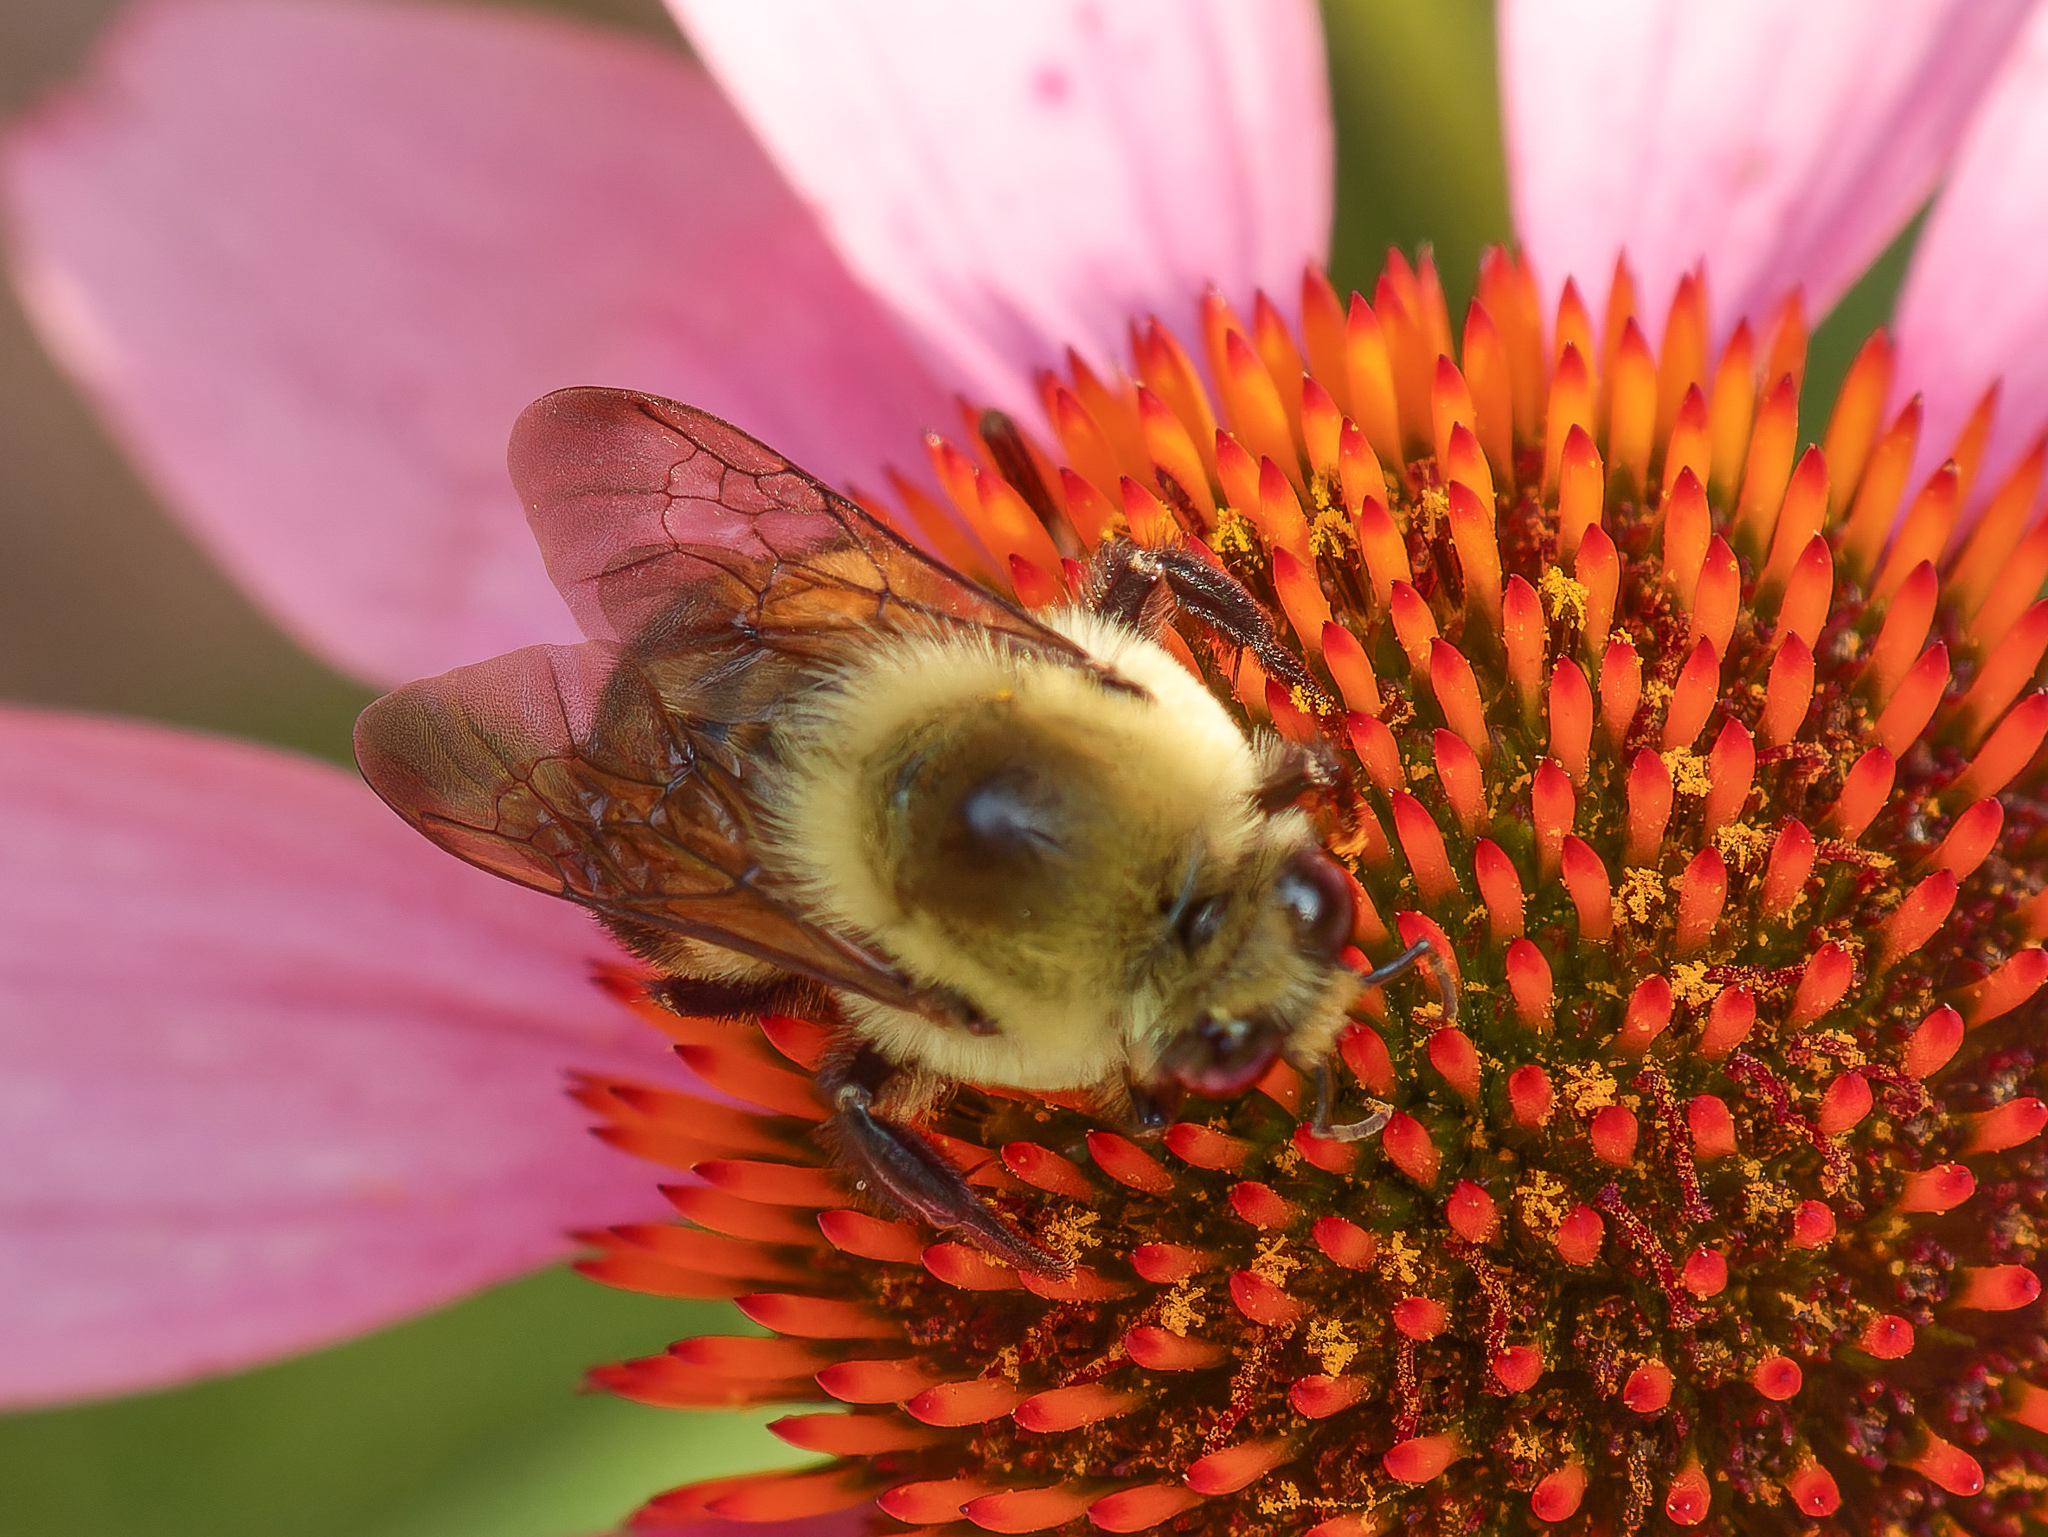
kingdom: Animalia
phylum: Arthropoda
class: Insecta
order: Hymenoptera
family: Apidae
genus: Bombus
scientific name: Bombus griseocollis
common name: Brown-belted bumble bee
